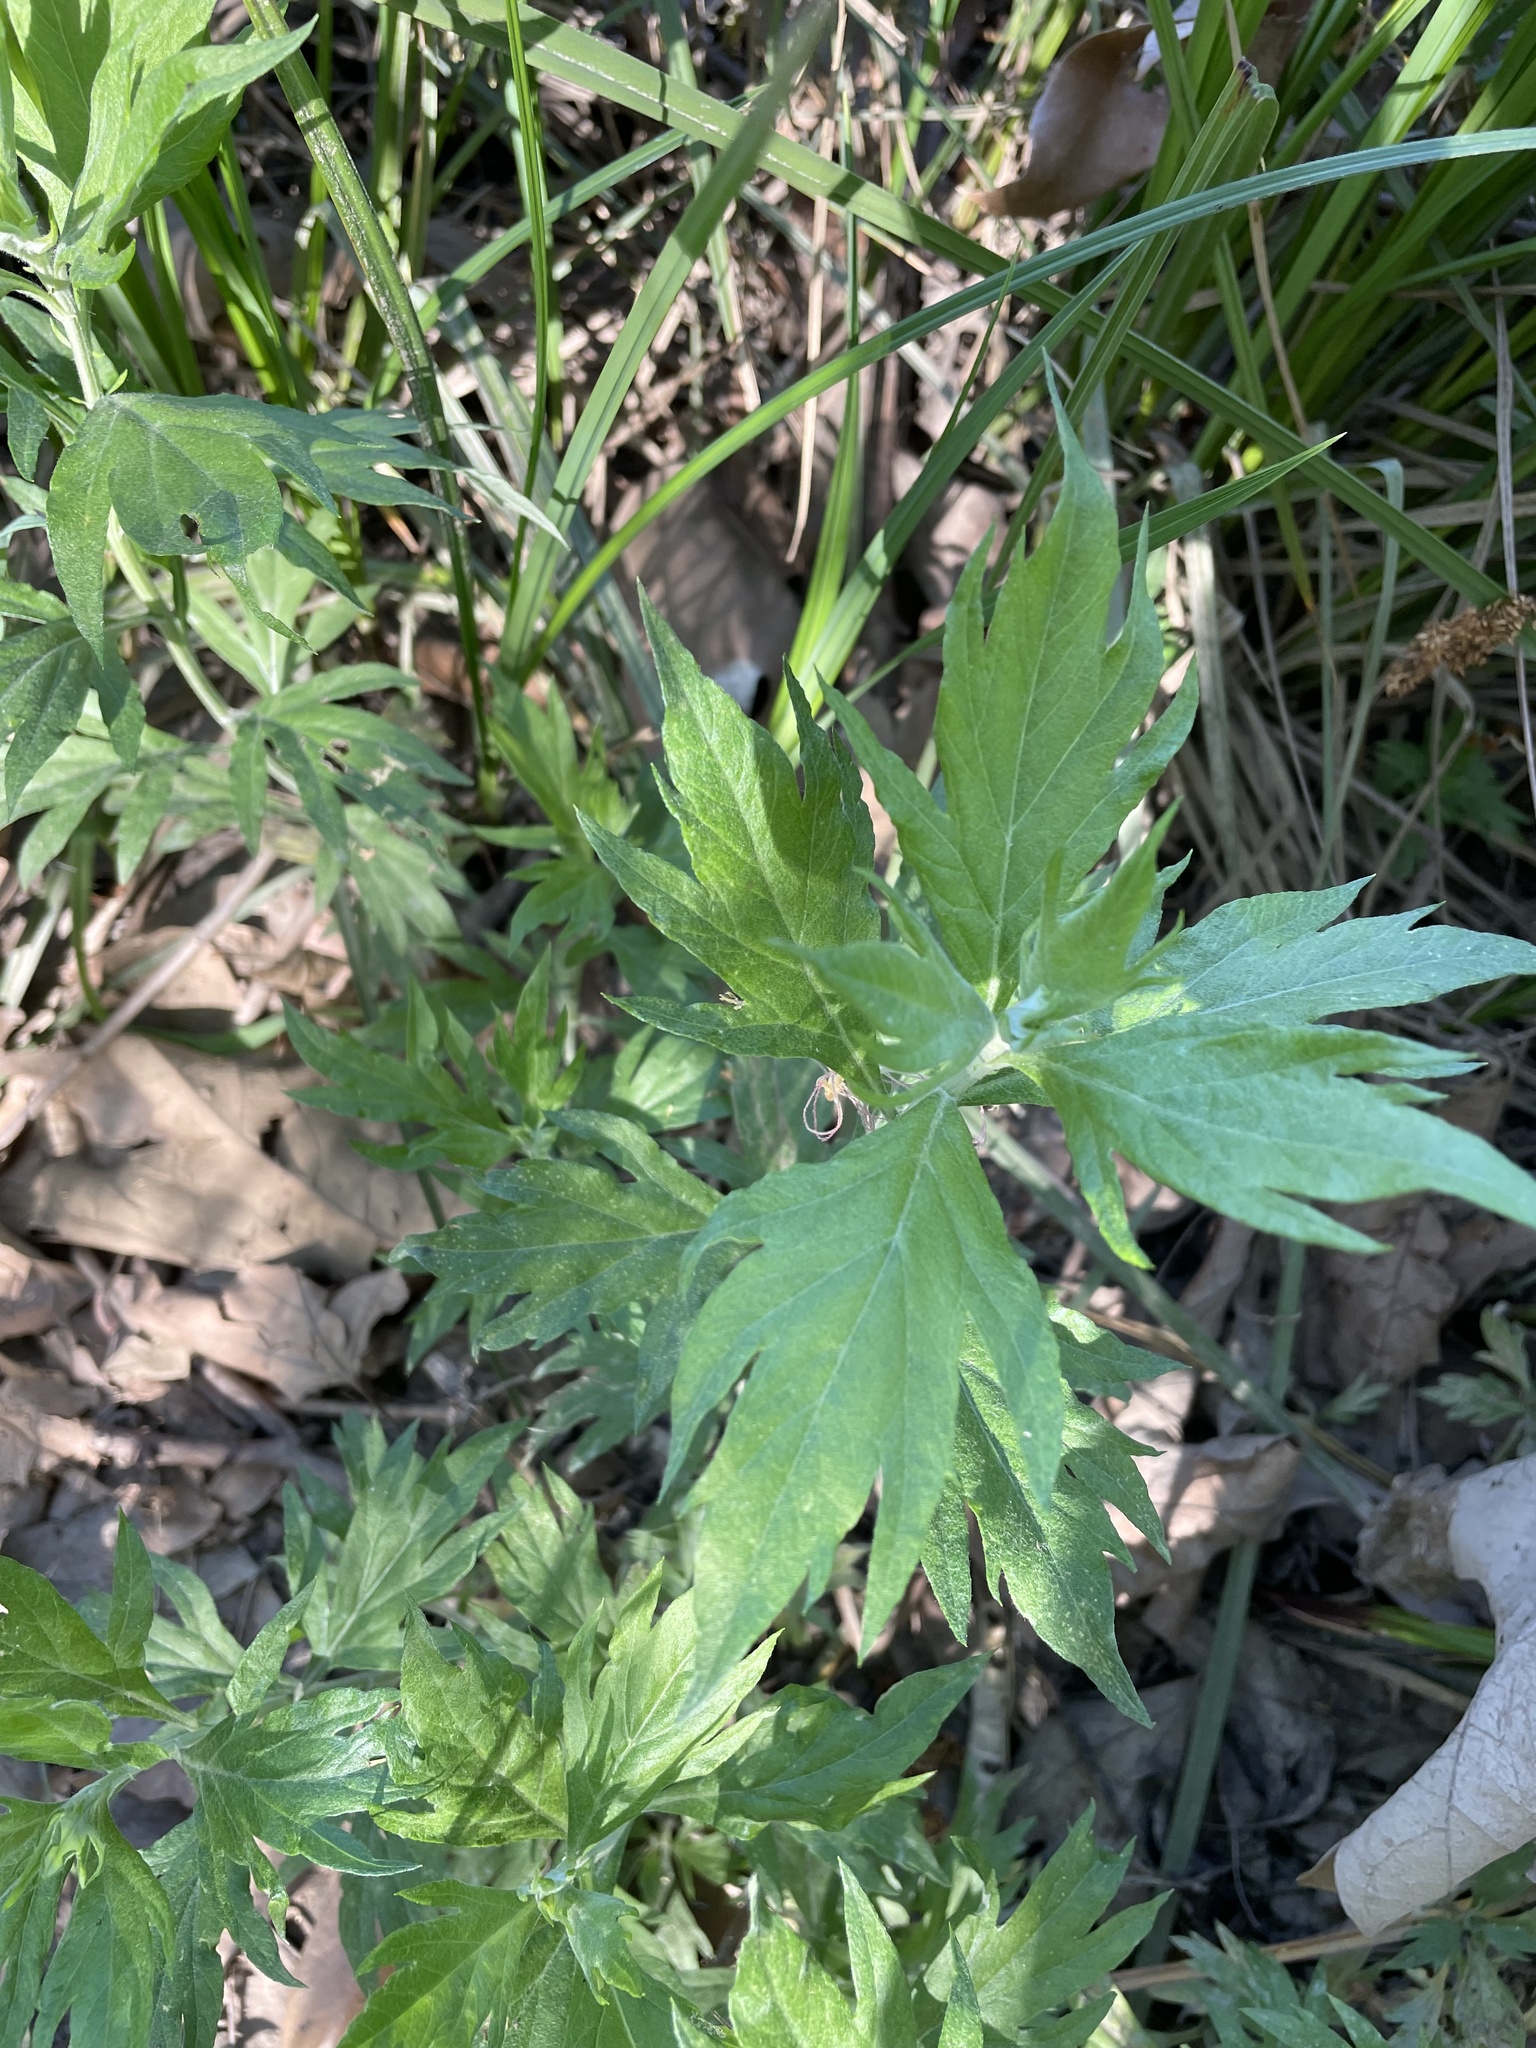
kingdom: Plantae
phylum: Tracheophyta
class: Magnoliopsida
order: Asterales
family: Asteraceae
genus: Artemisia
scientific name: Artemisia douglasiana
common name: Northwest mugwort
